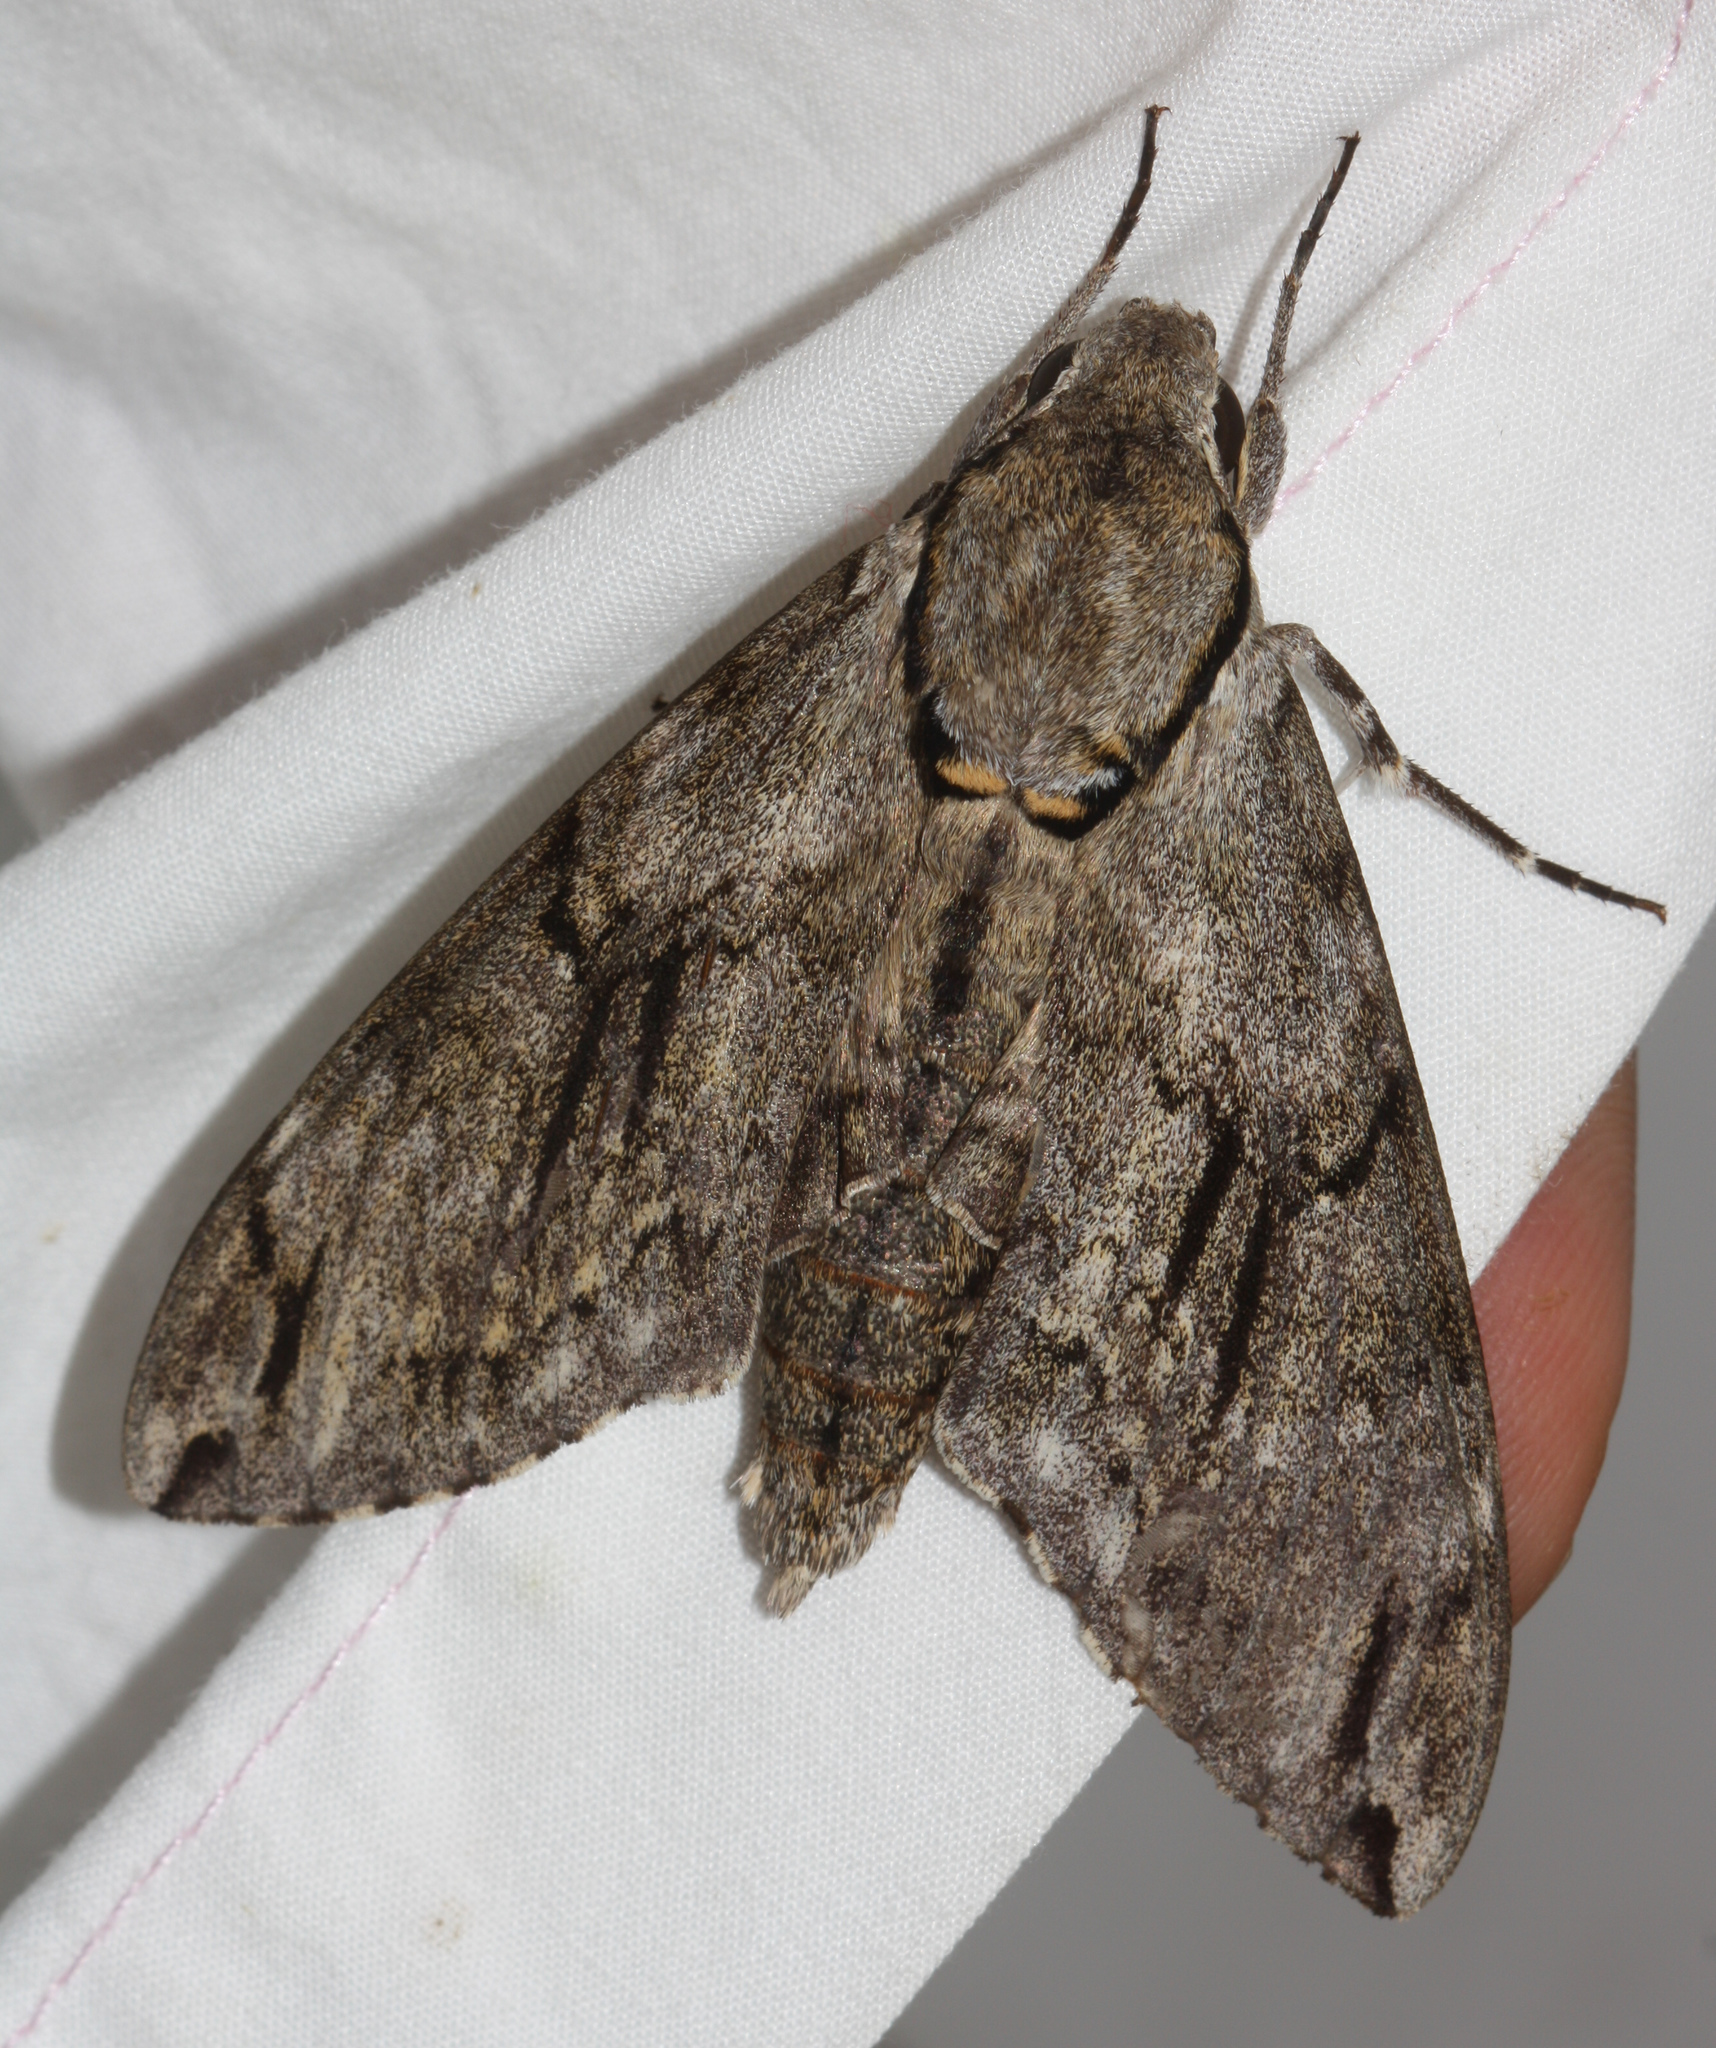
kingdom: Animalia
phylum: Arthropoda
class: Insecta
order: Lepidoptera
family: Sphingidae
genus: Psilogramma
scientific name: Psilogramma increta
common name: Gray hawk moth
